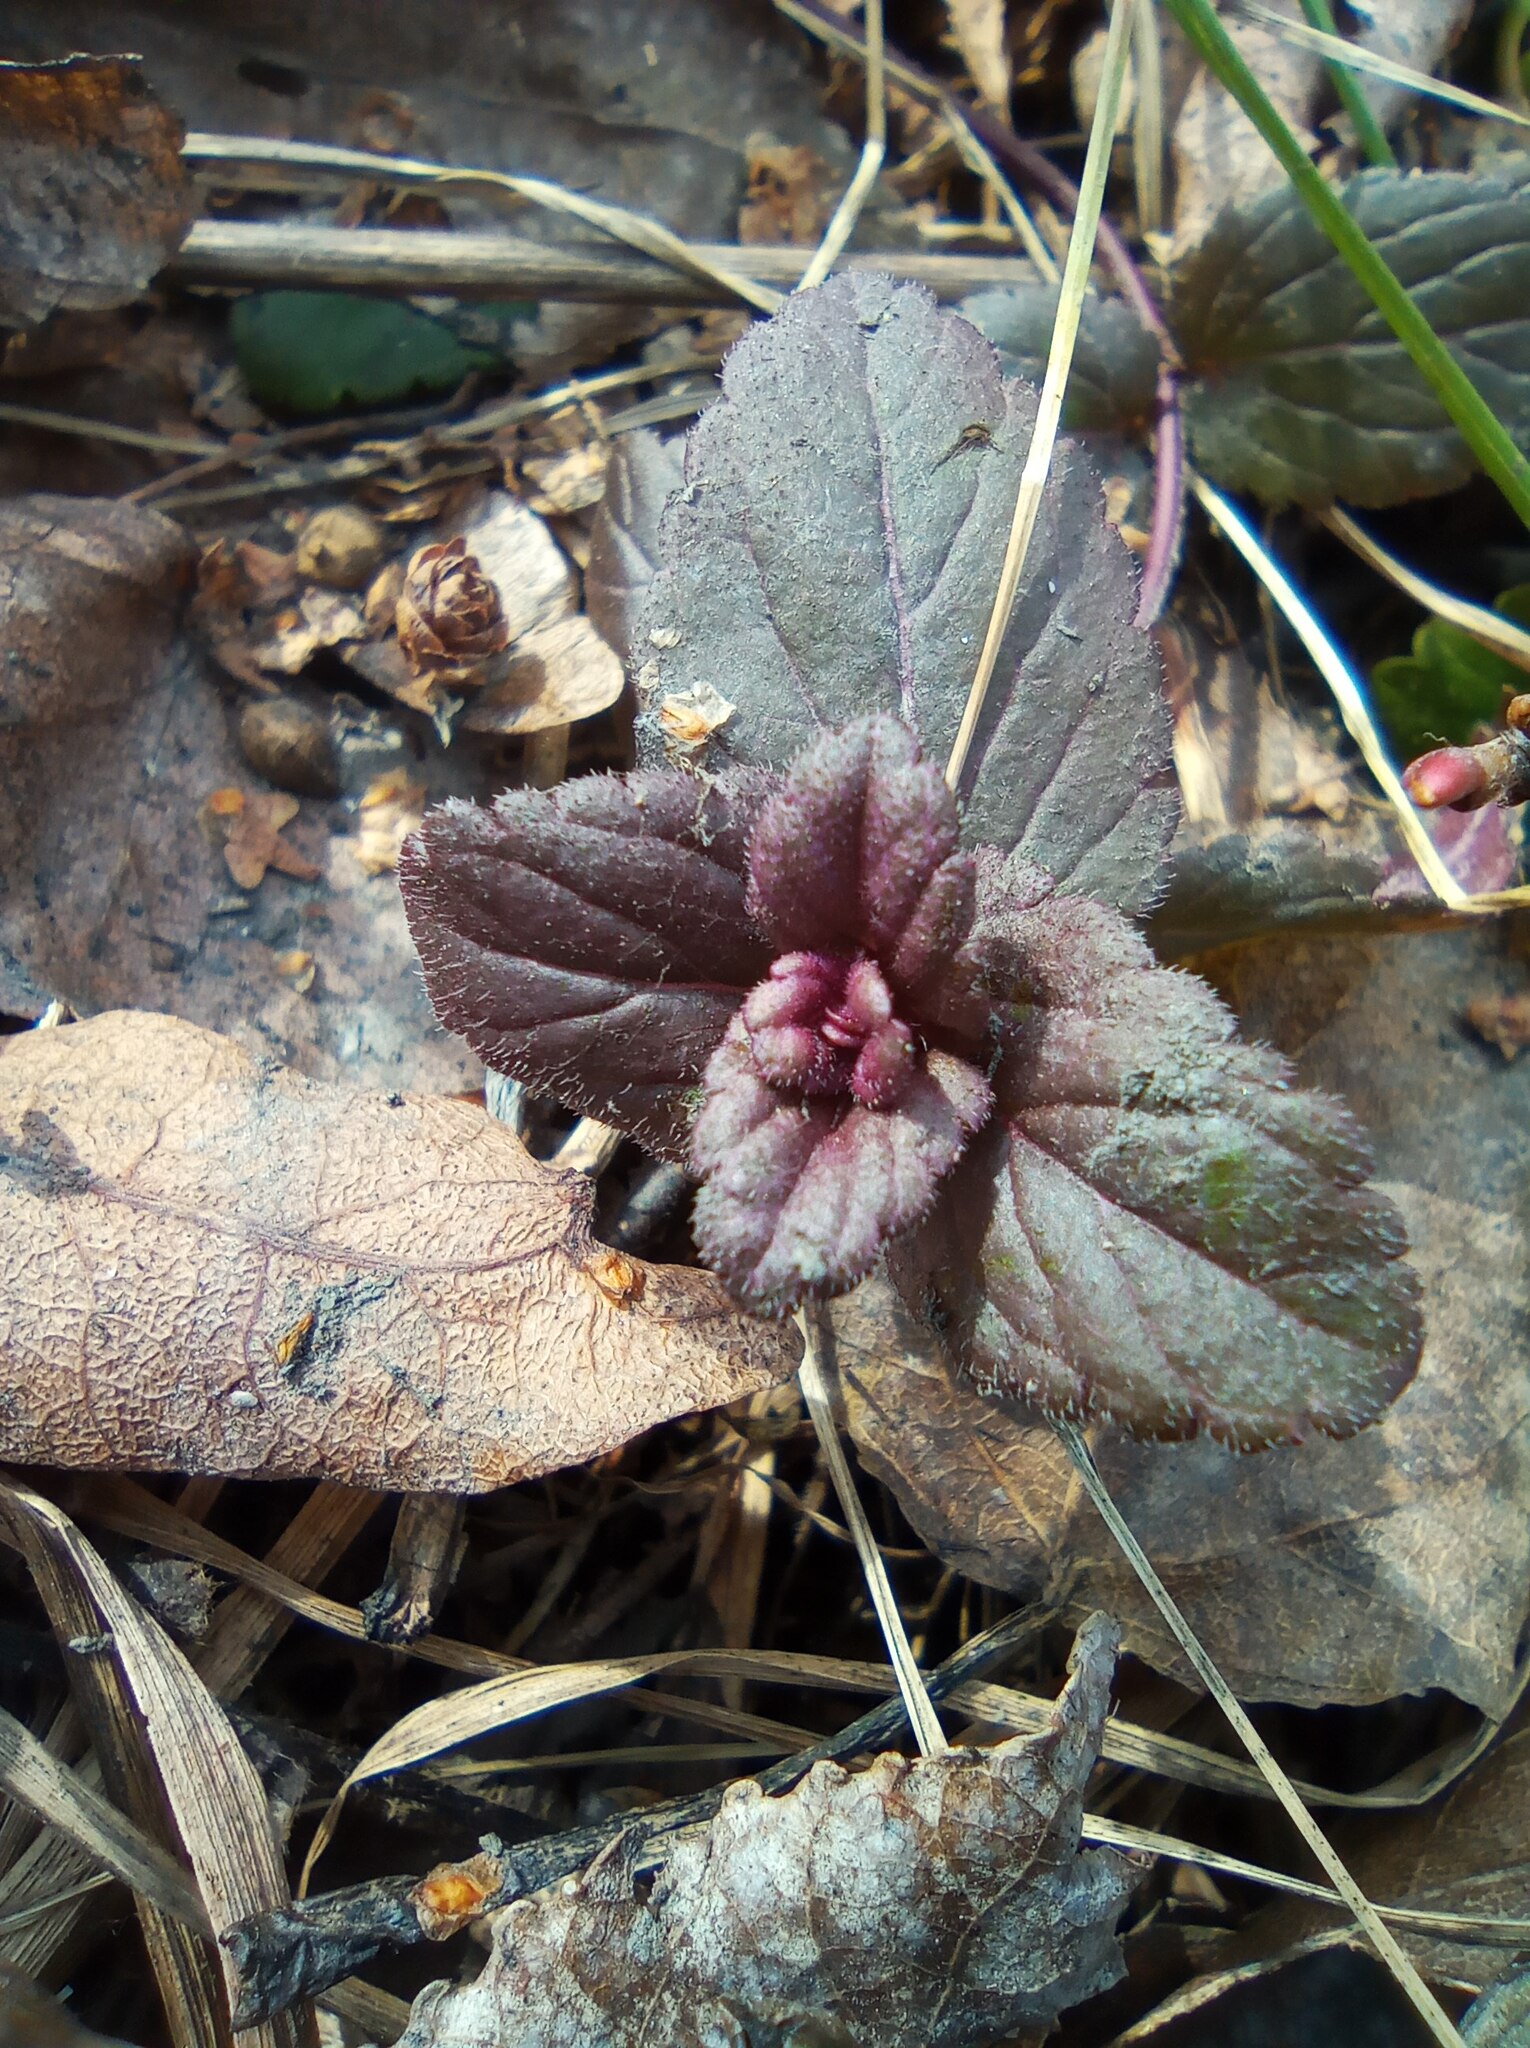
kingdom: Plantae
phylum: Tracheophyta
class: Magnoliopsida
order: Lamiales
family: Plantaginaceae
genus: Veronica
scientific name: Veronica chamaedrys
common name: Germander speedwell
